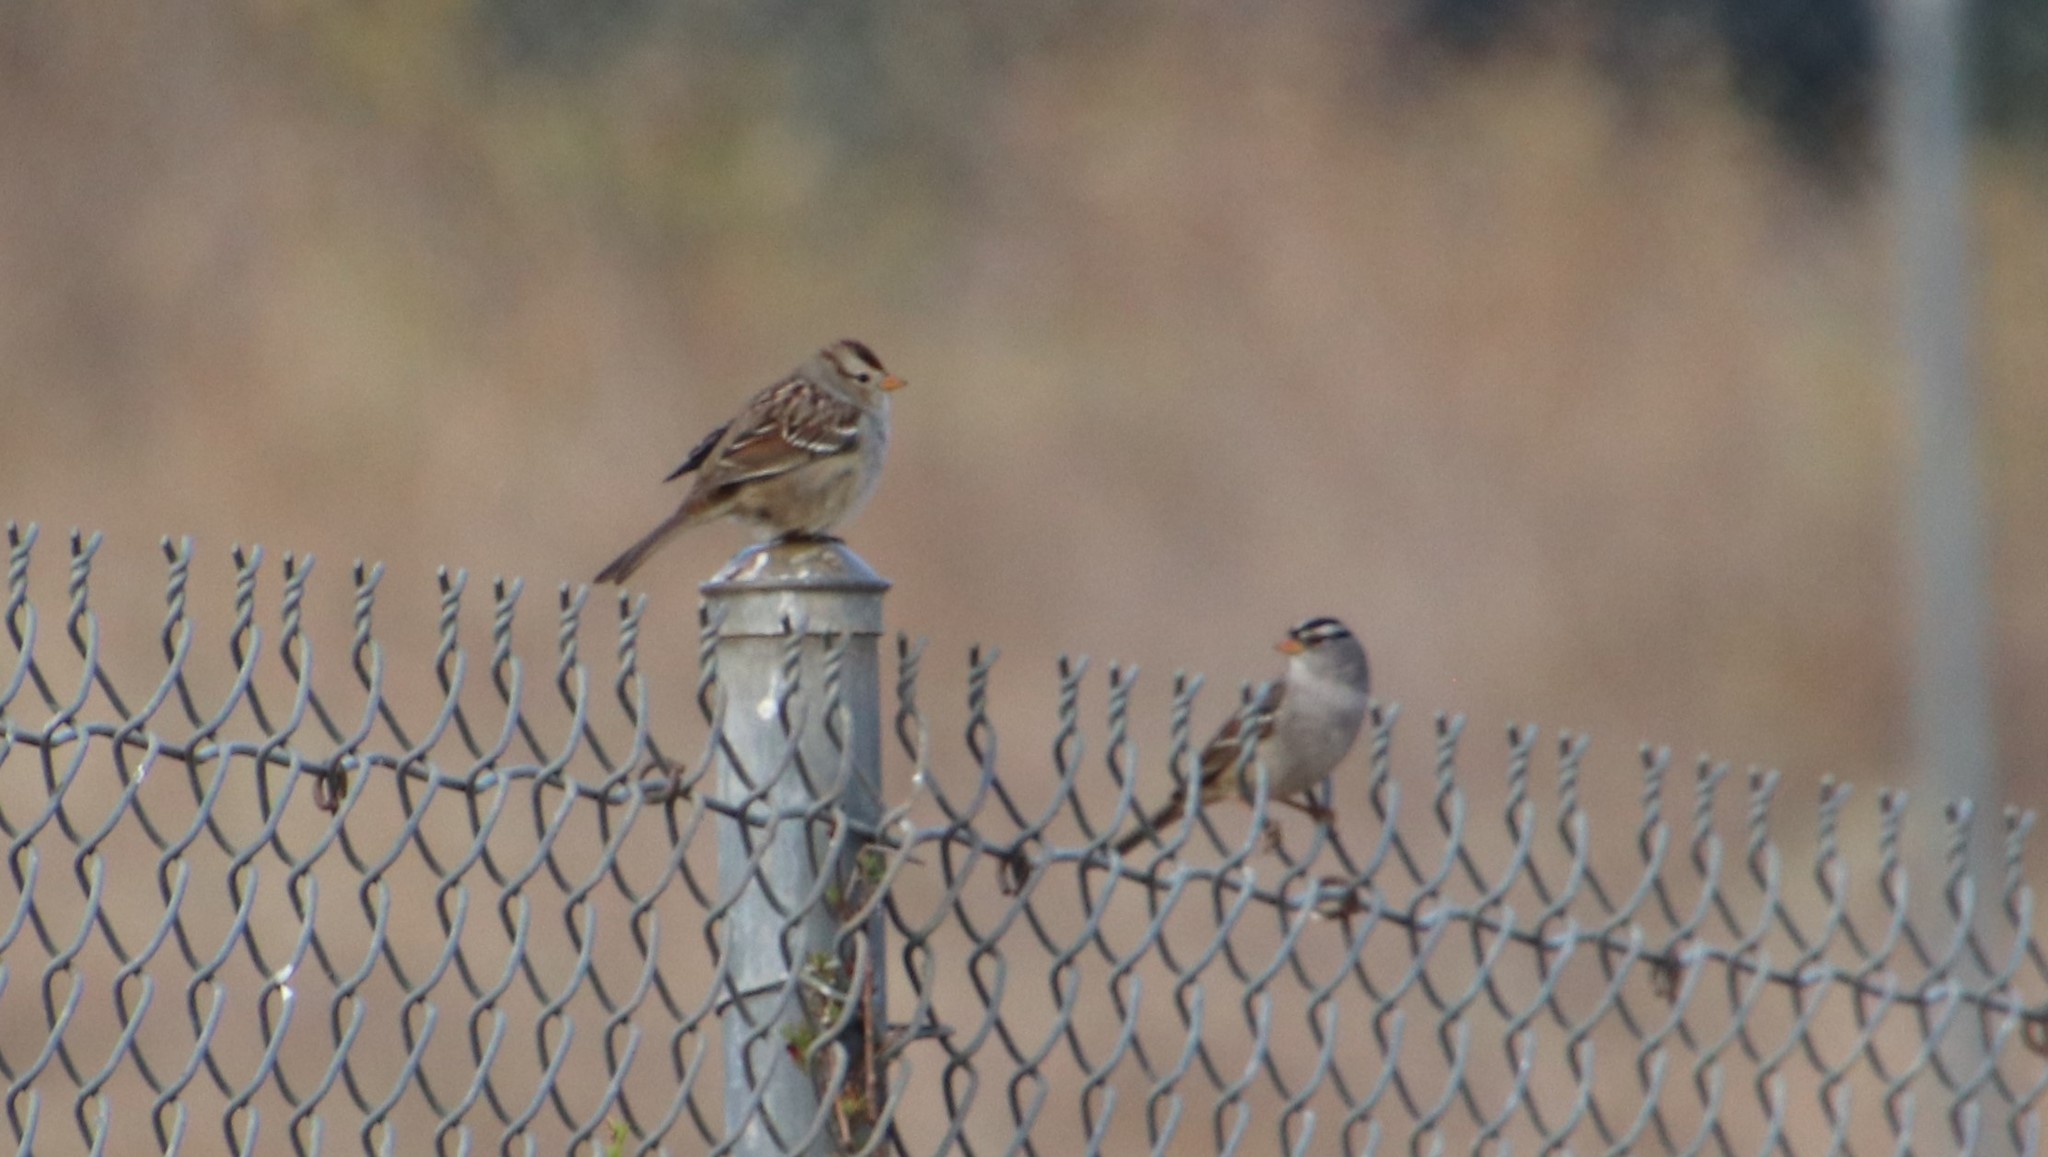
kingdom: Animalia
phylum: Chordata
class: Aves
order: Passeriformes
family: Passerellidae
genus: Zonotrichia
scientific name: Zonotrichia leucophrys
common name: White-crowned sparrow
